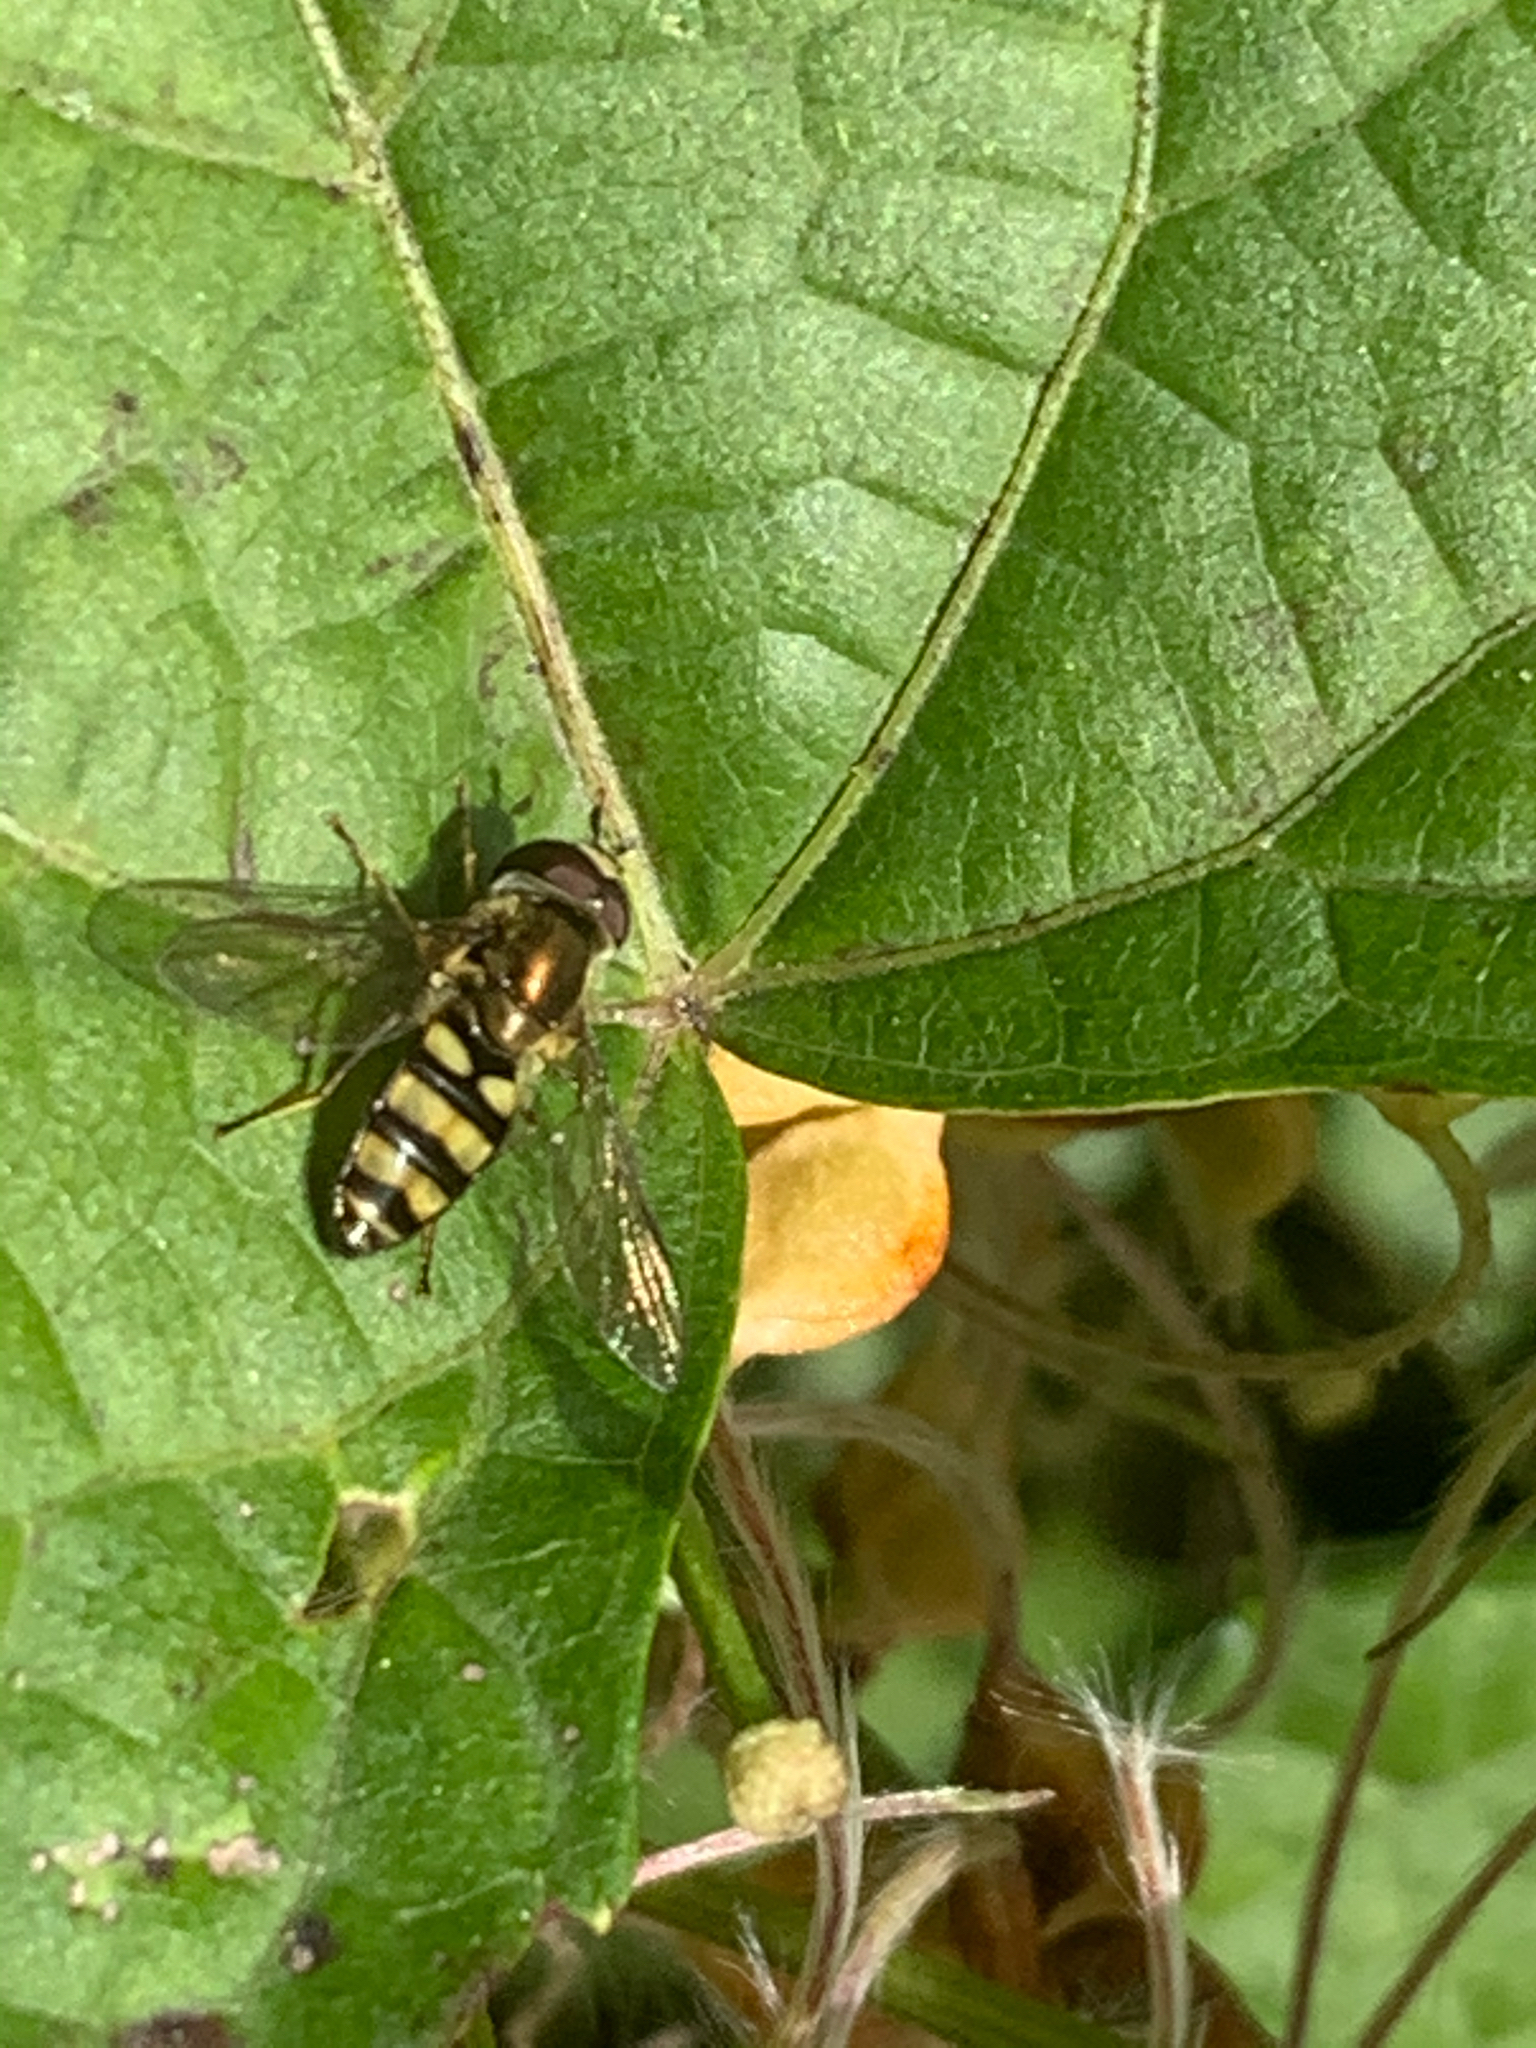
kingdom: Animalia
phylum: Arthropoda
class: Insecta
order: Diptera
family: Syrphidae
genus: Eupeodes
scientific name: Eupeodes
